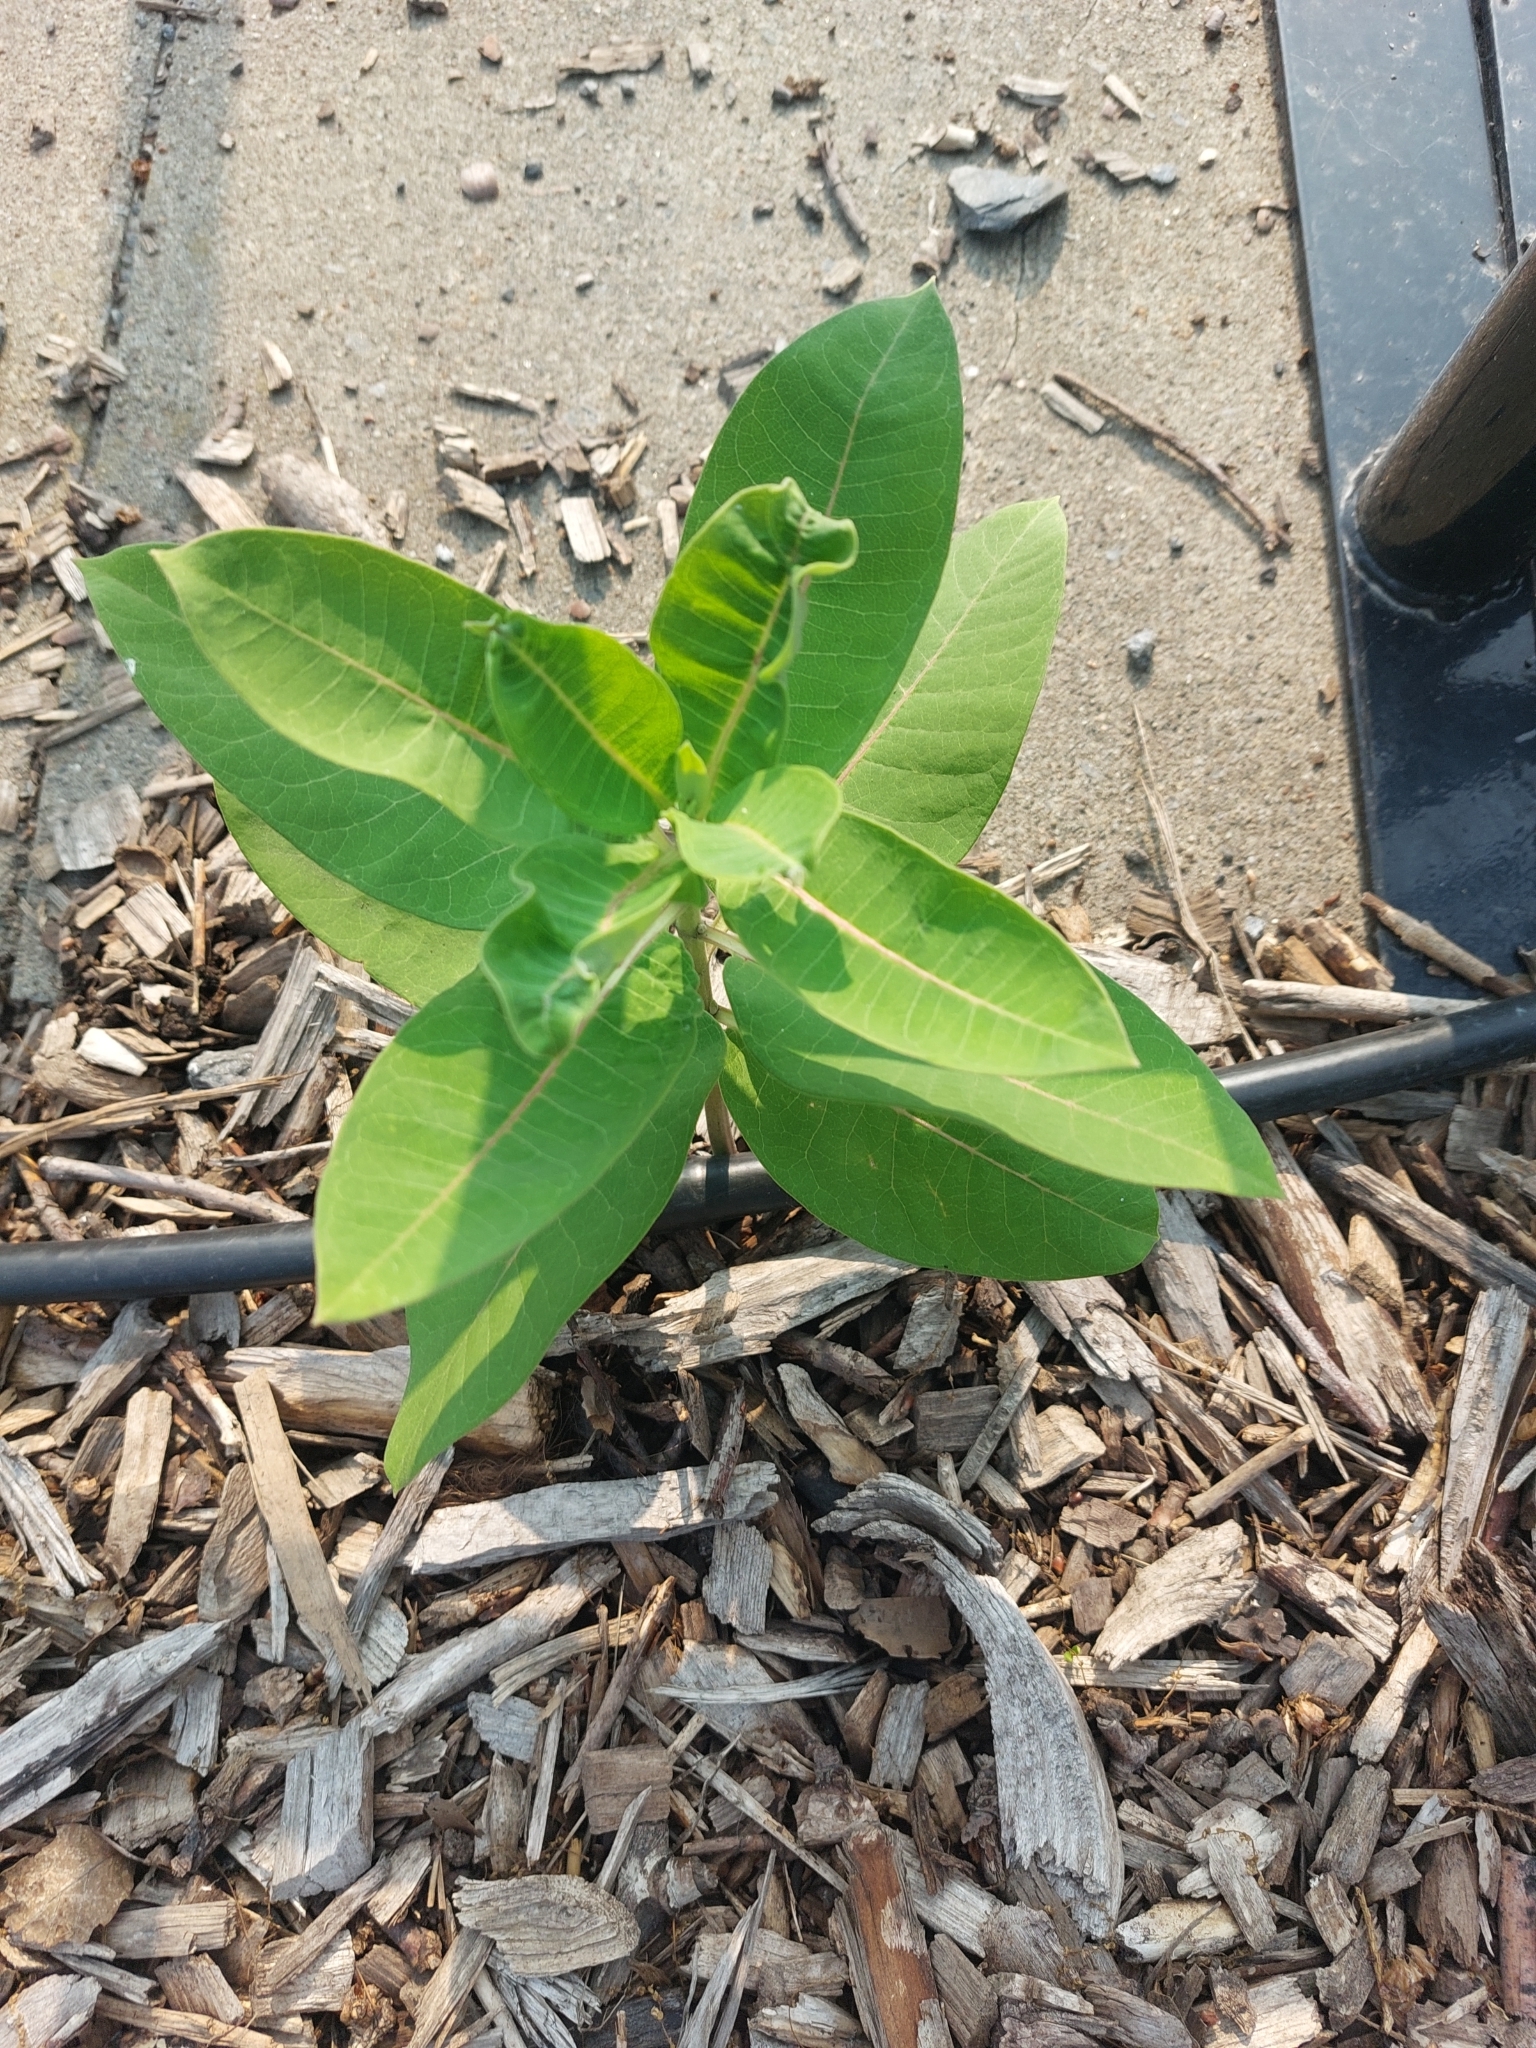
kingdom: Plantae
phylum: Tracheophyta
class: Magnoliopsida
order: Gentianales
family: Apocynaceae
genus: Asclepias
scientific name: Asclepias syriaca
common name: Common milkweed
